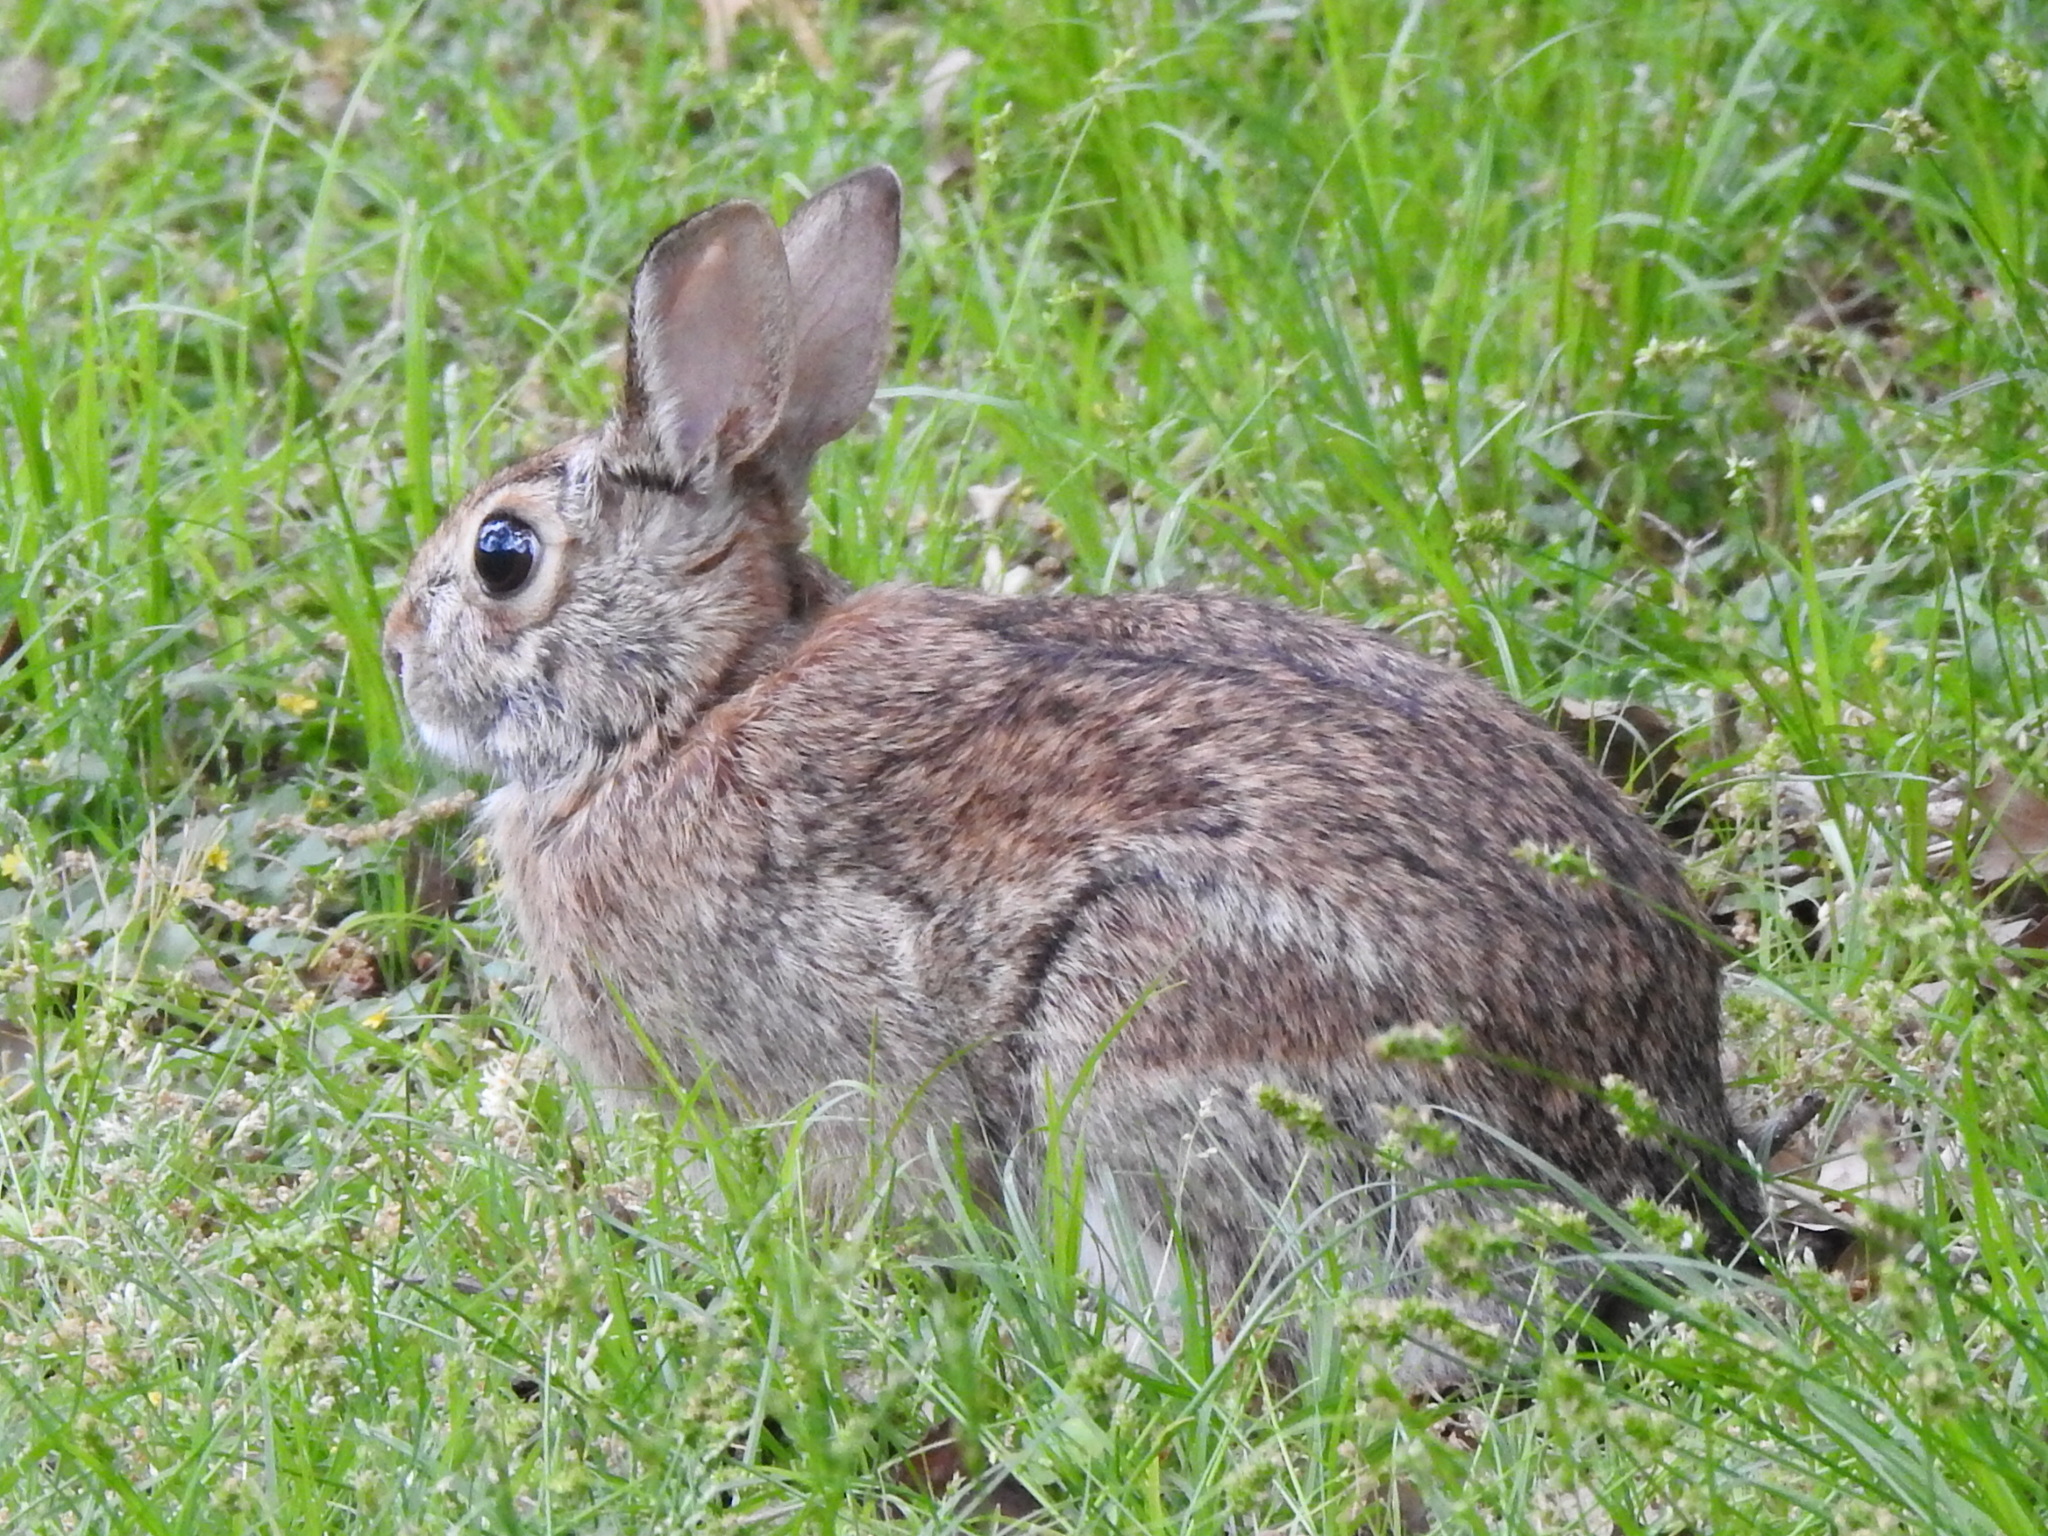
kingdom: Animalia
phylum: Chordata
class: Mammalia
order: Lagomorpha
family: Leporidae
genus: Sylvilagus
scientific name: Sylvilagus floridanus
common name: Eastern cottontail
